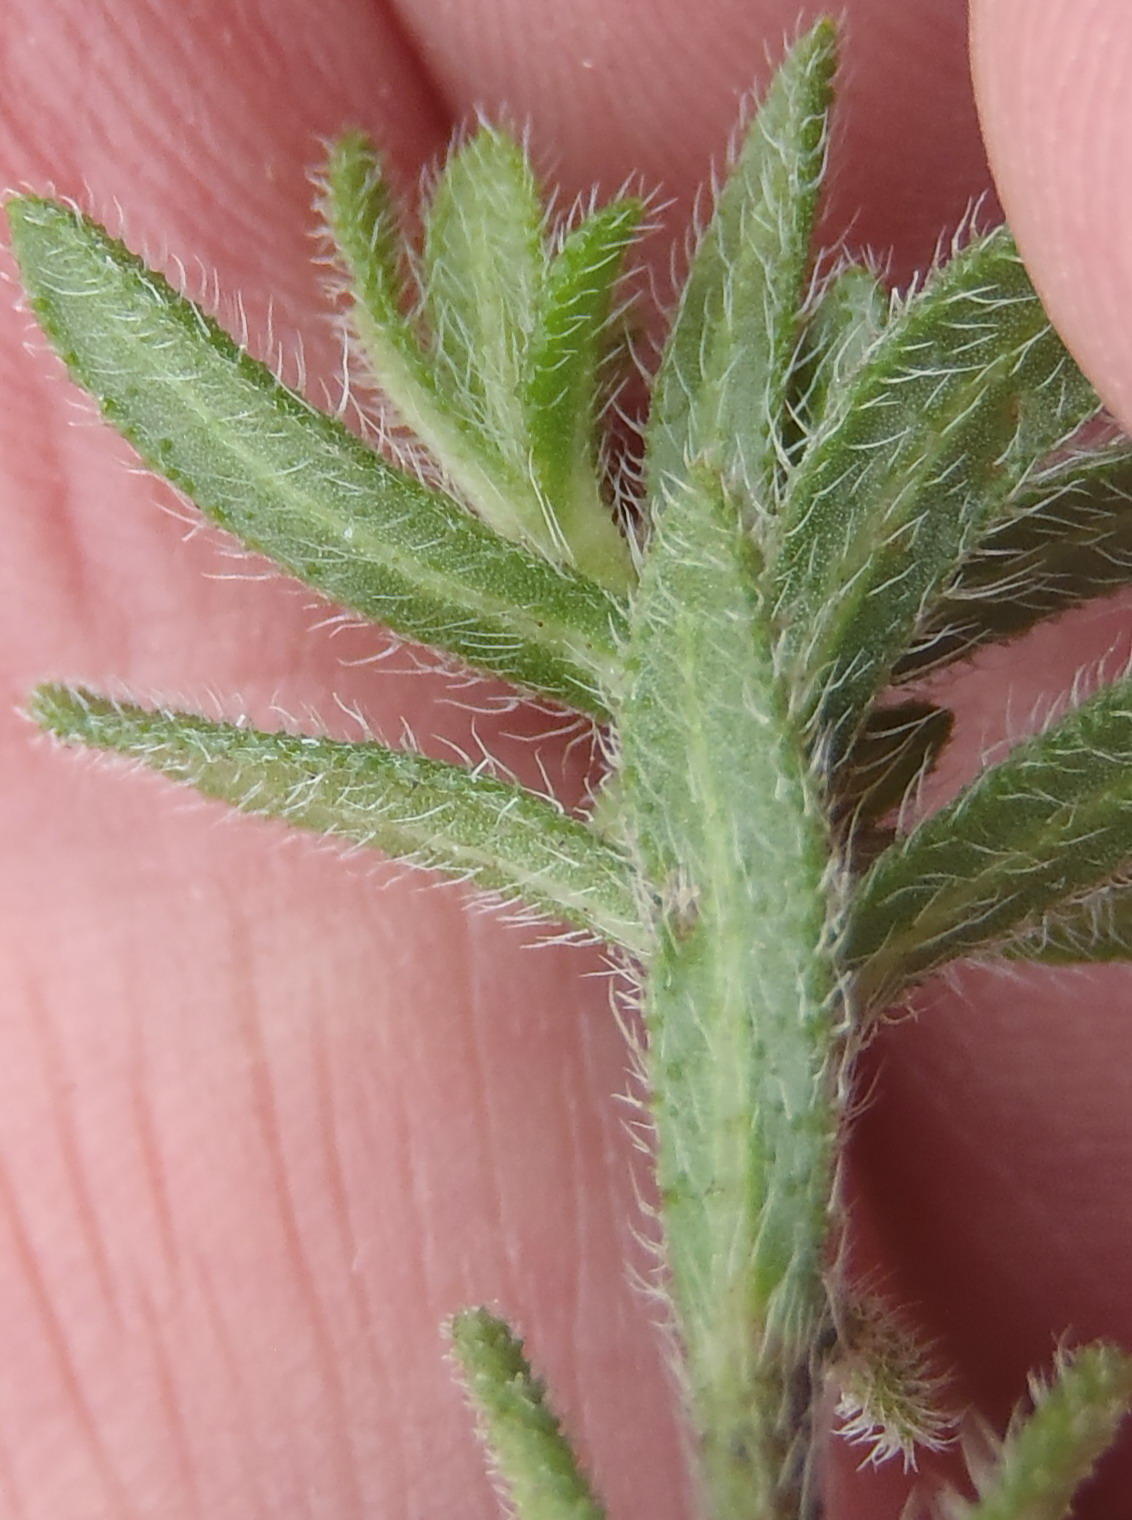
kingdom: Plantae
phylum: Tracheophyta
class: Magnoliopsida
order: Asterales
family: Asteraceae
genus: Felicia
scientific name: Felicia amoena
